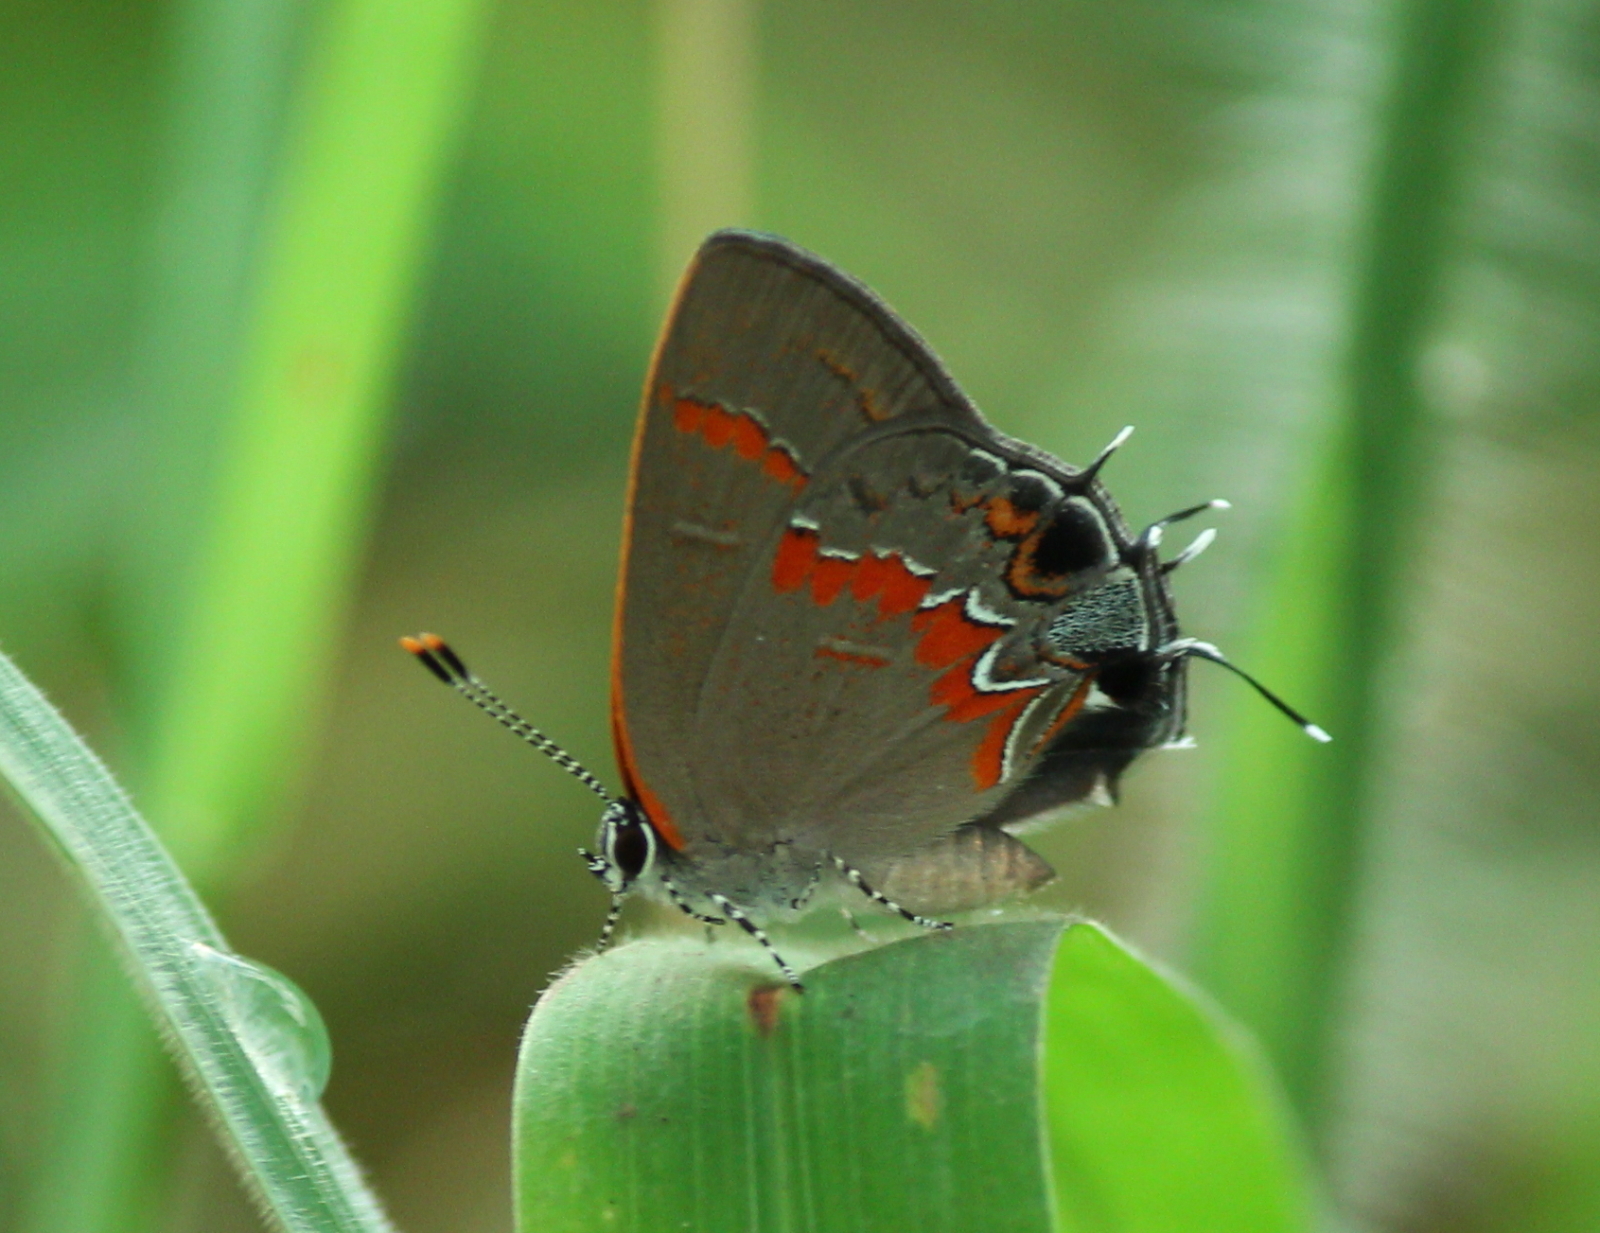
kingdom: Animalia
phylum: Arthropoda
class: Insecta
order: Lepidoptera
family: Lycaenidae
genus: Calycopis
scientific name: Calycopis cecrops
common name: Red-banded hairstreak
